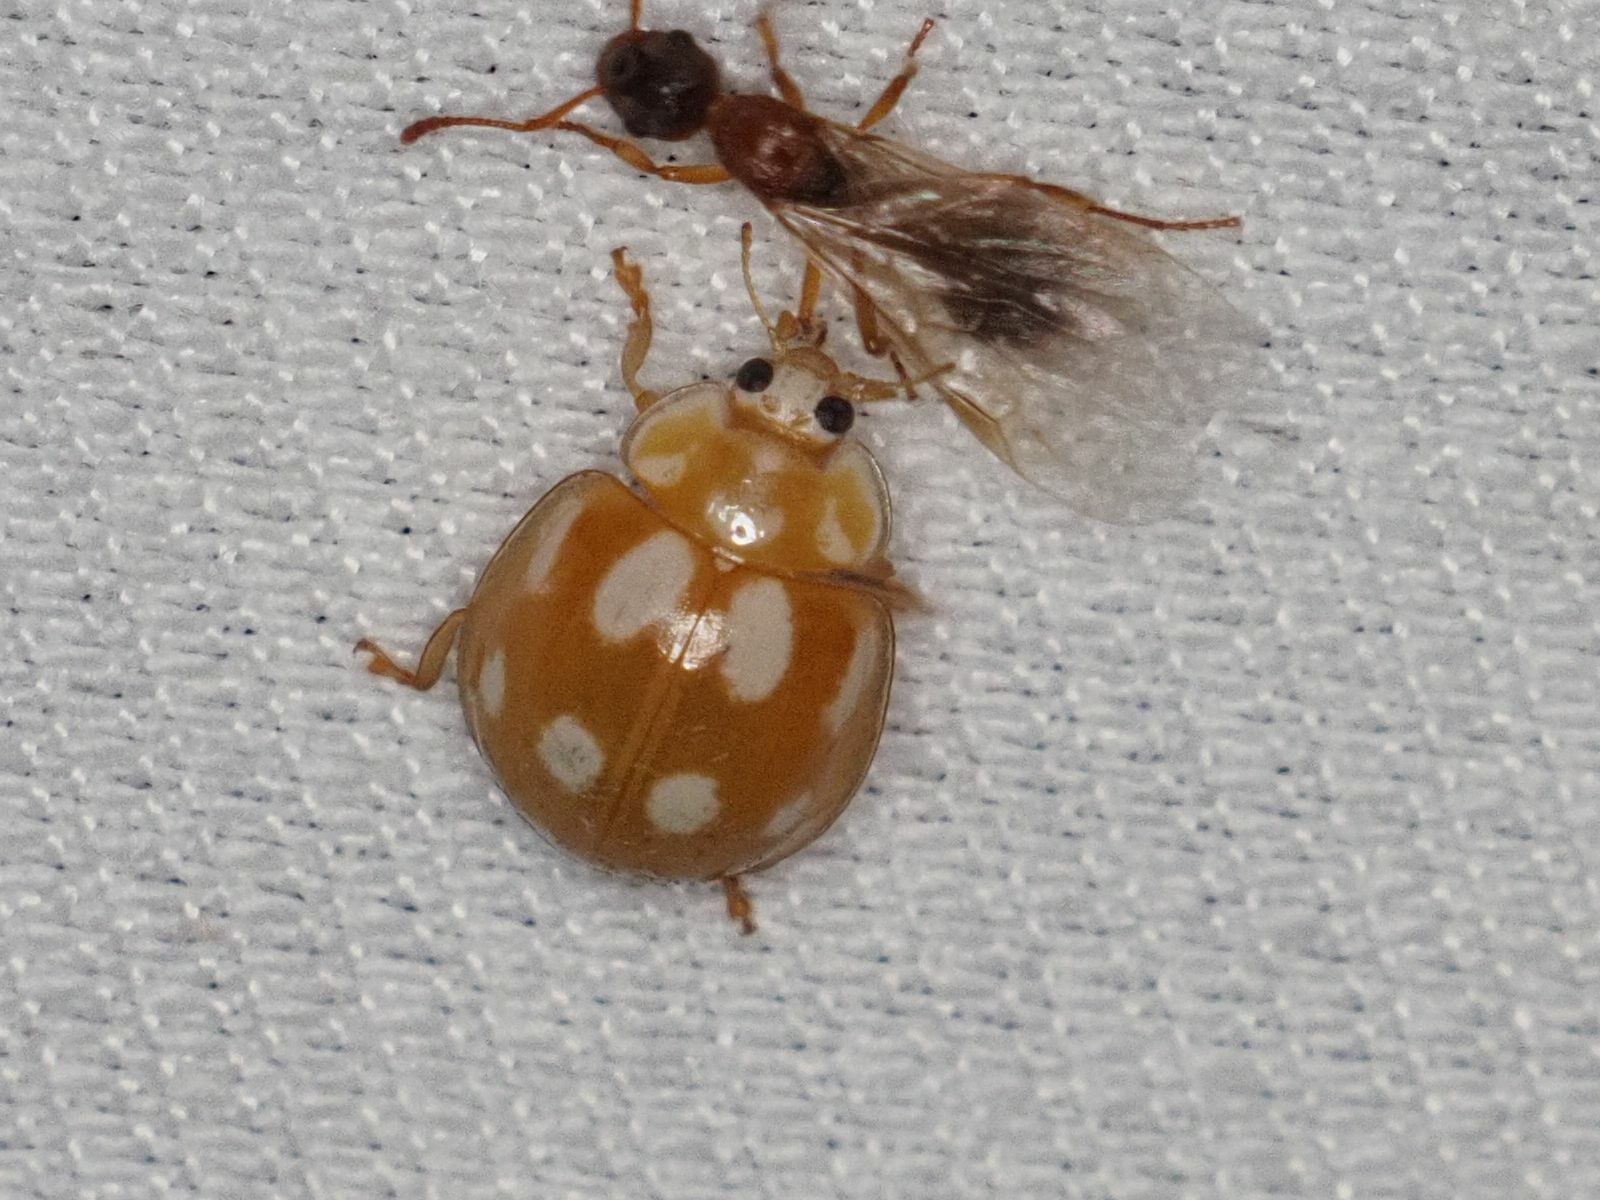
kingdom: Animalia
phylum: Arthropoda
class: Insecta
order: Coleoptera
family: Coccinellidae
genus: Calvia
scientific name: Calvia decemguttata
